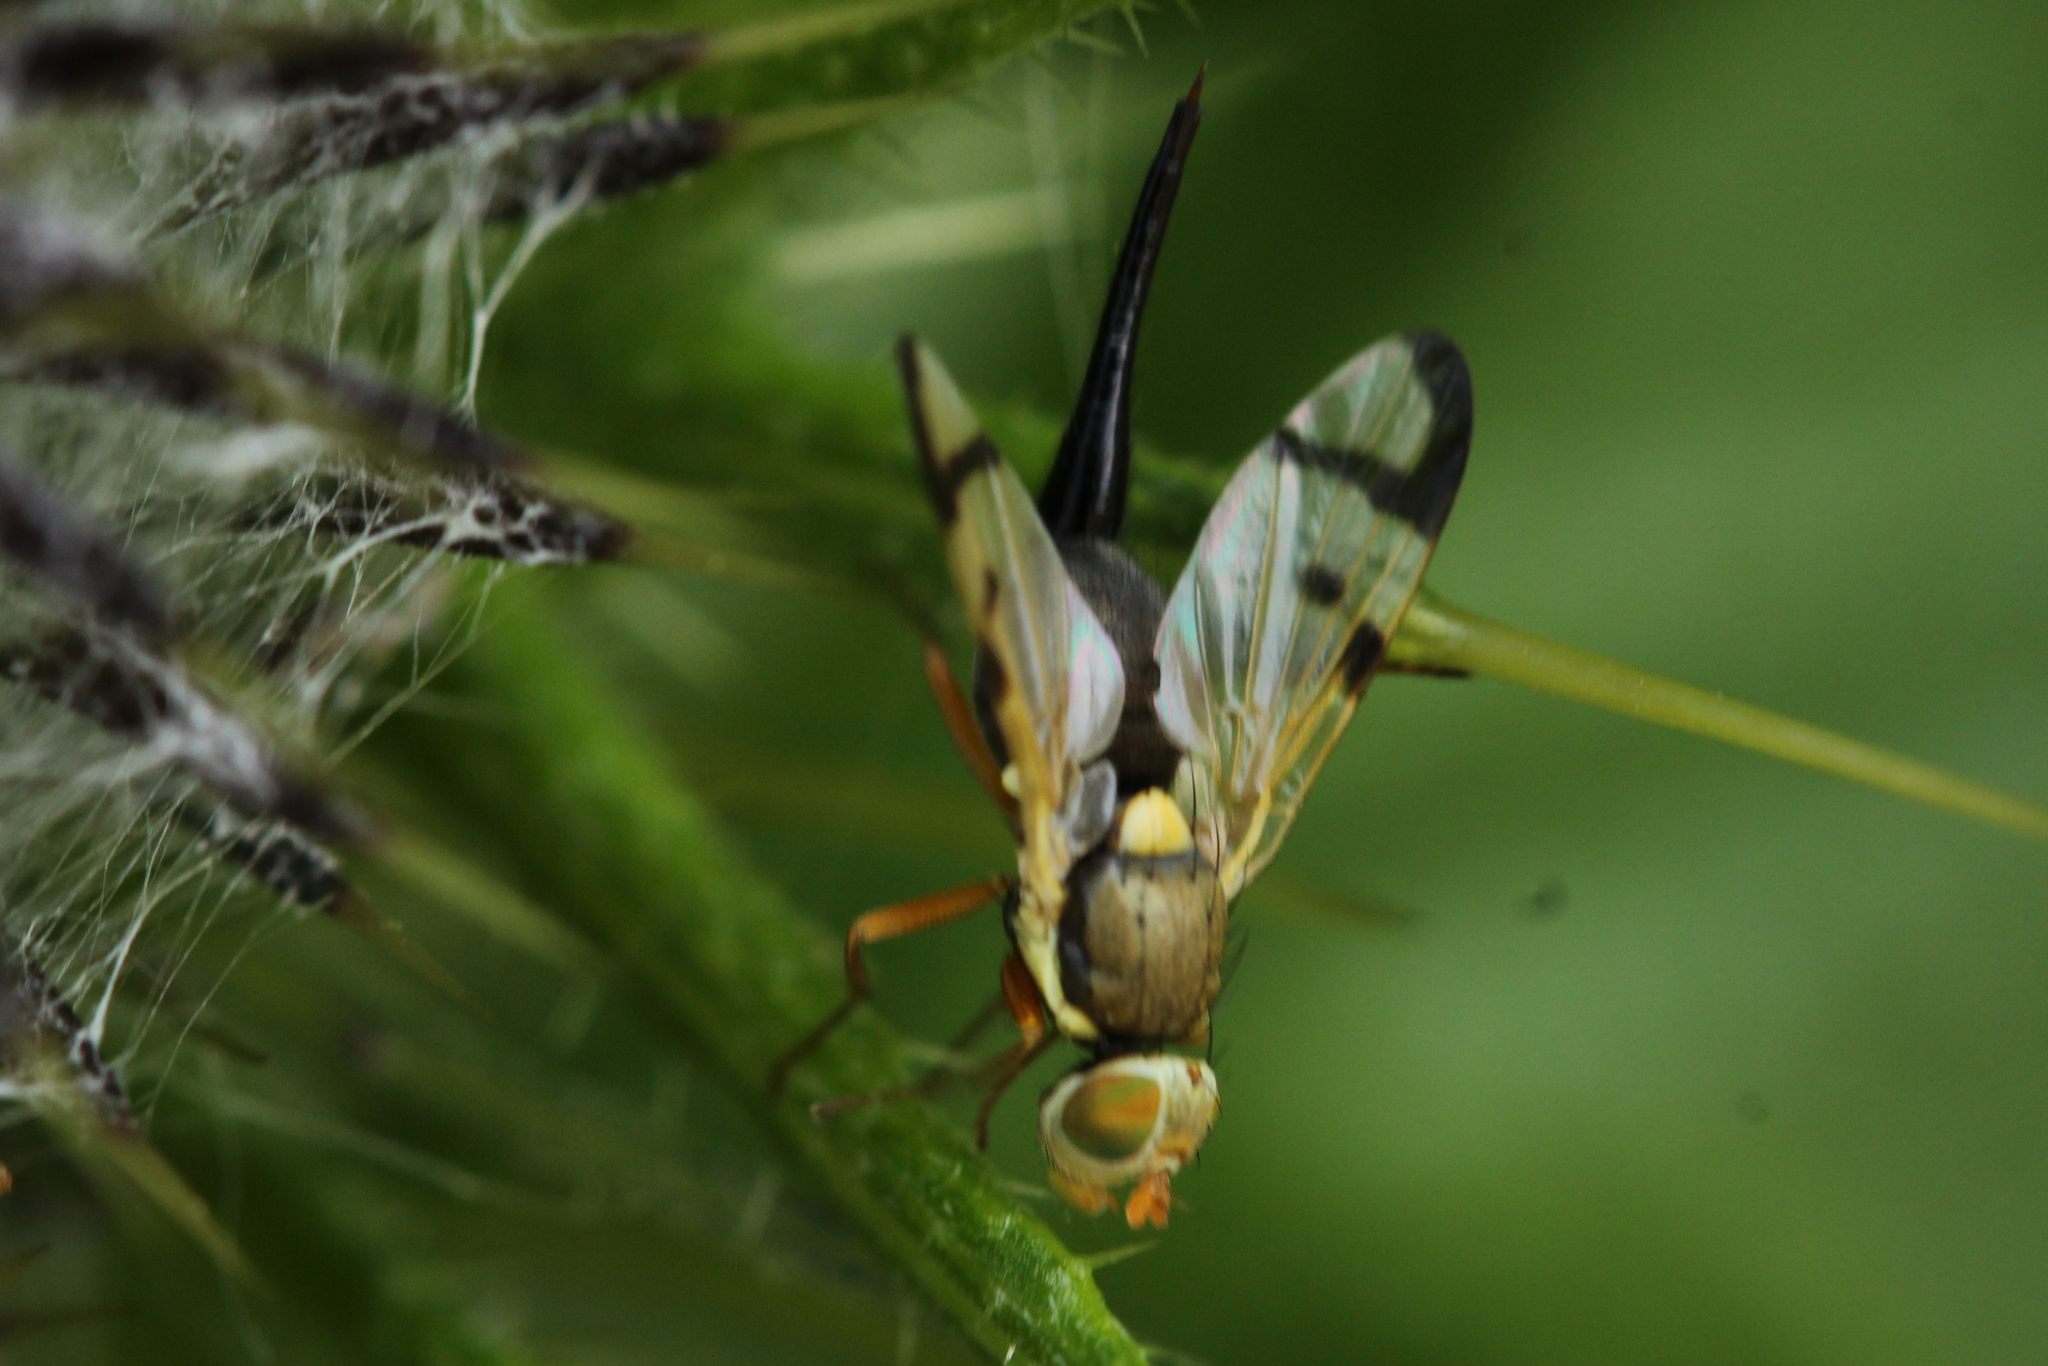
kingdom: Animalia
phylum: Arthropoda
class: Insecta
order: Diptera
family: Tephritidae
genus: Urophora
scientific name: Urophora stylata
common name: Fruit fly
